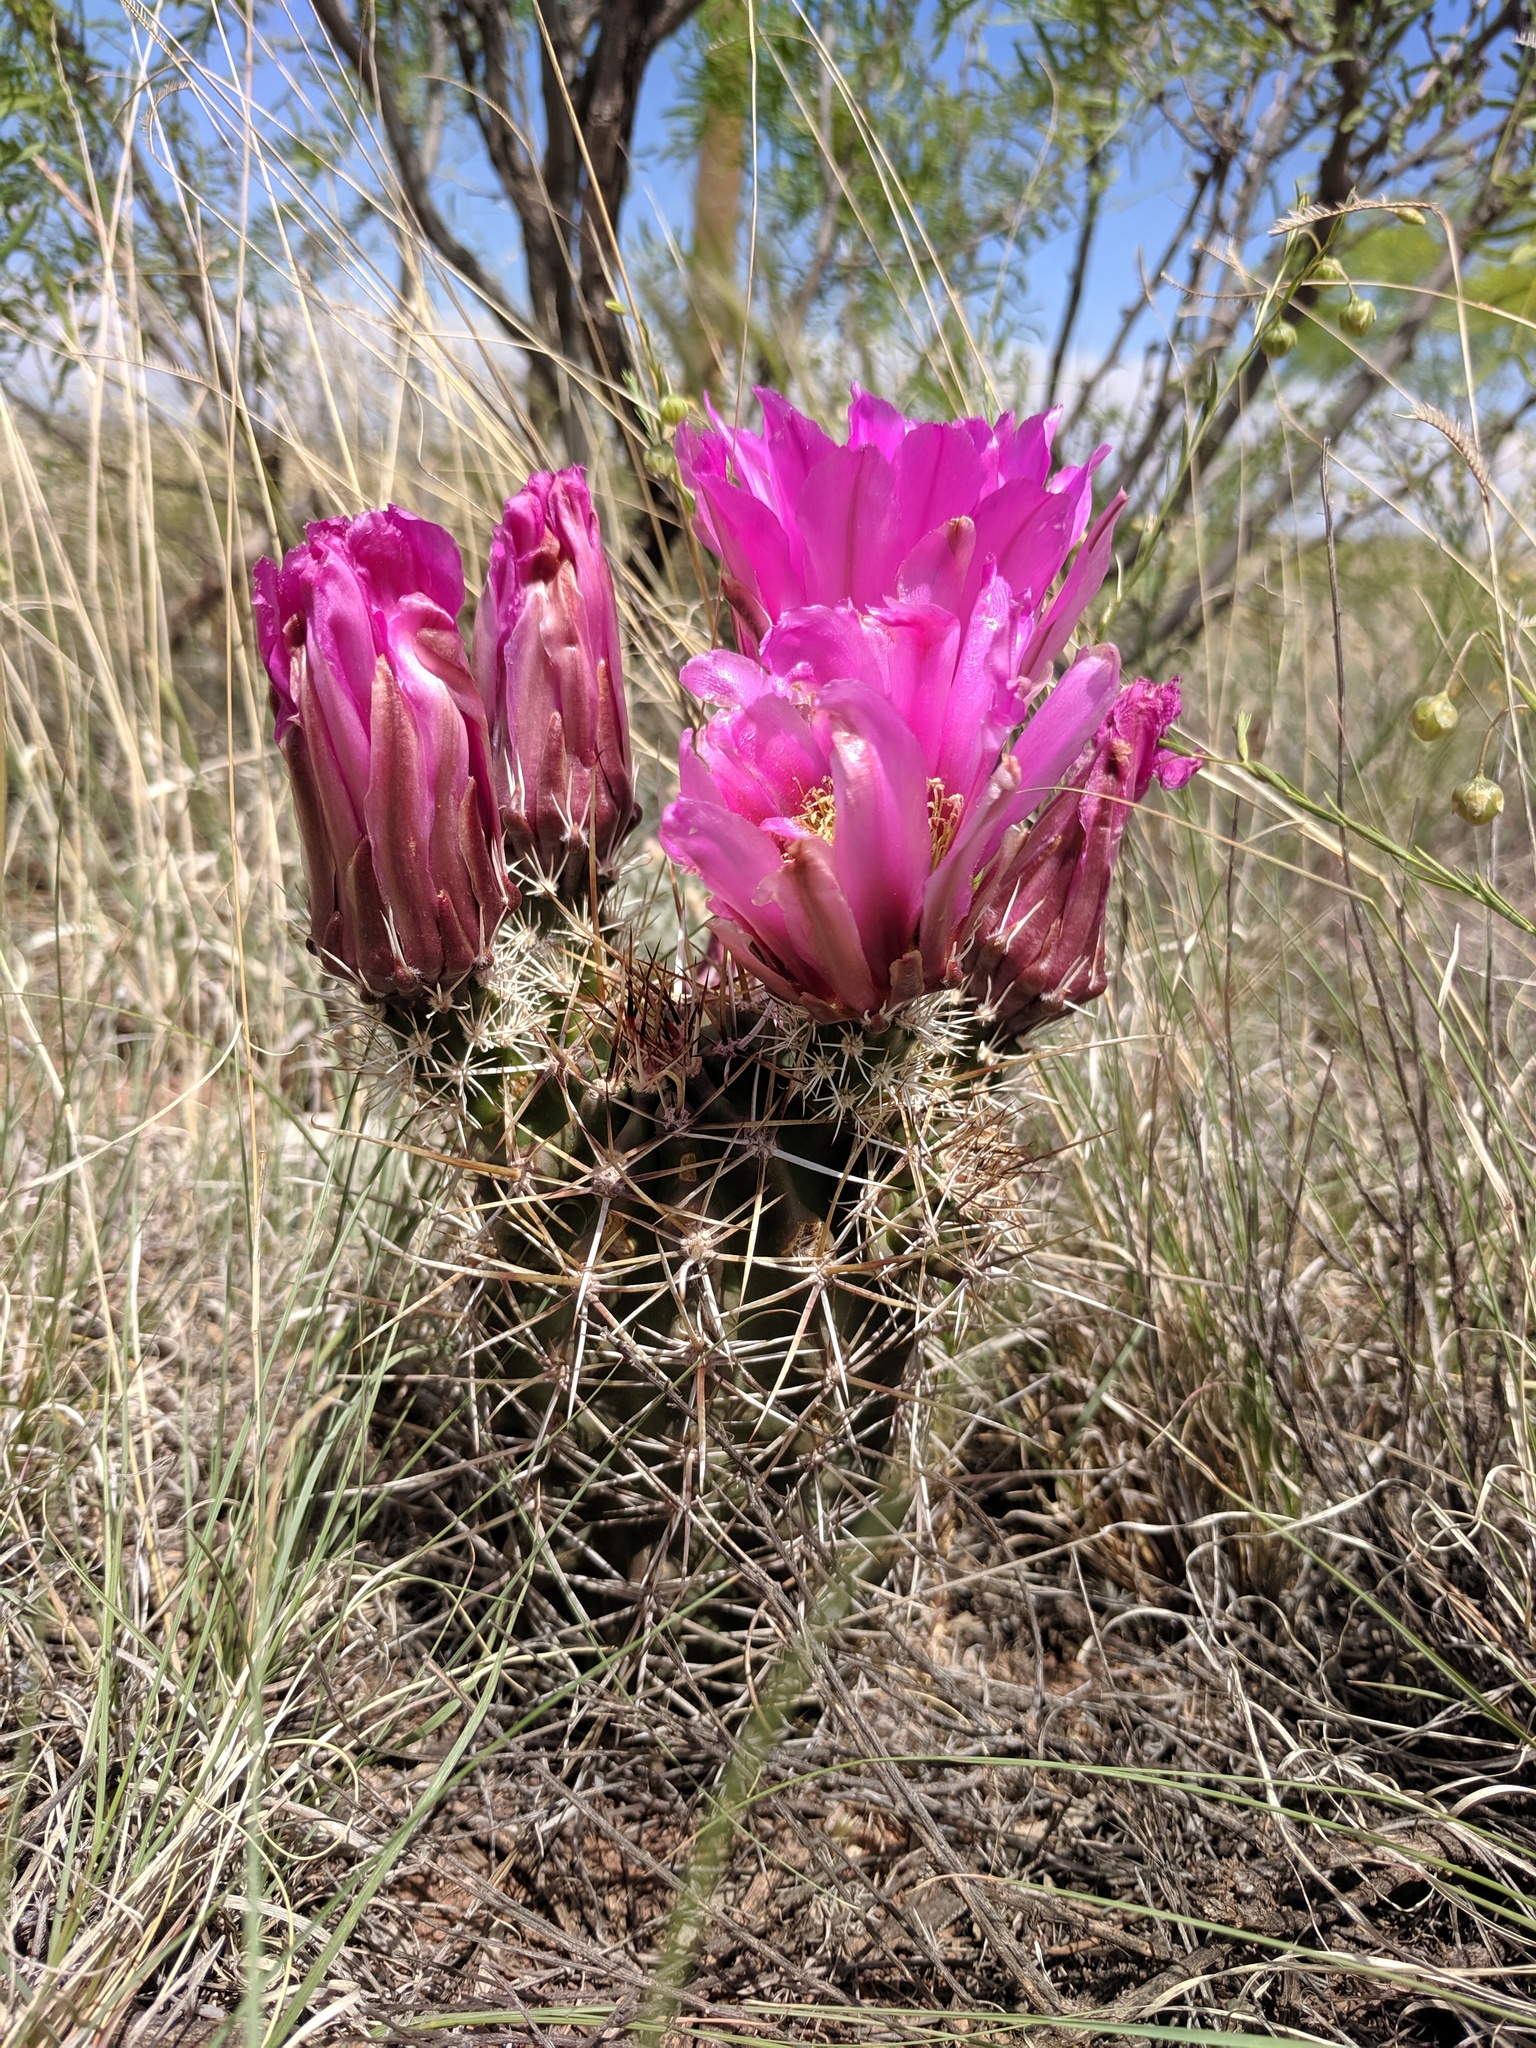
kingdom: Plantae
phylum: Tracheophyta
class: Magnoliopsida
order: Caryophyllales
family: Cactaceae
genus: Echinocereus
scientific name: Echinocereus fendleri
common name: Fendler's hedgehog cactus
